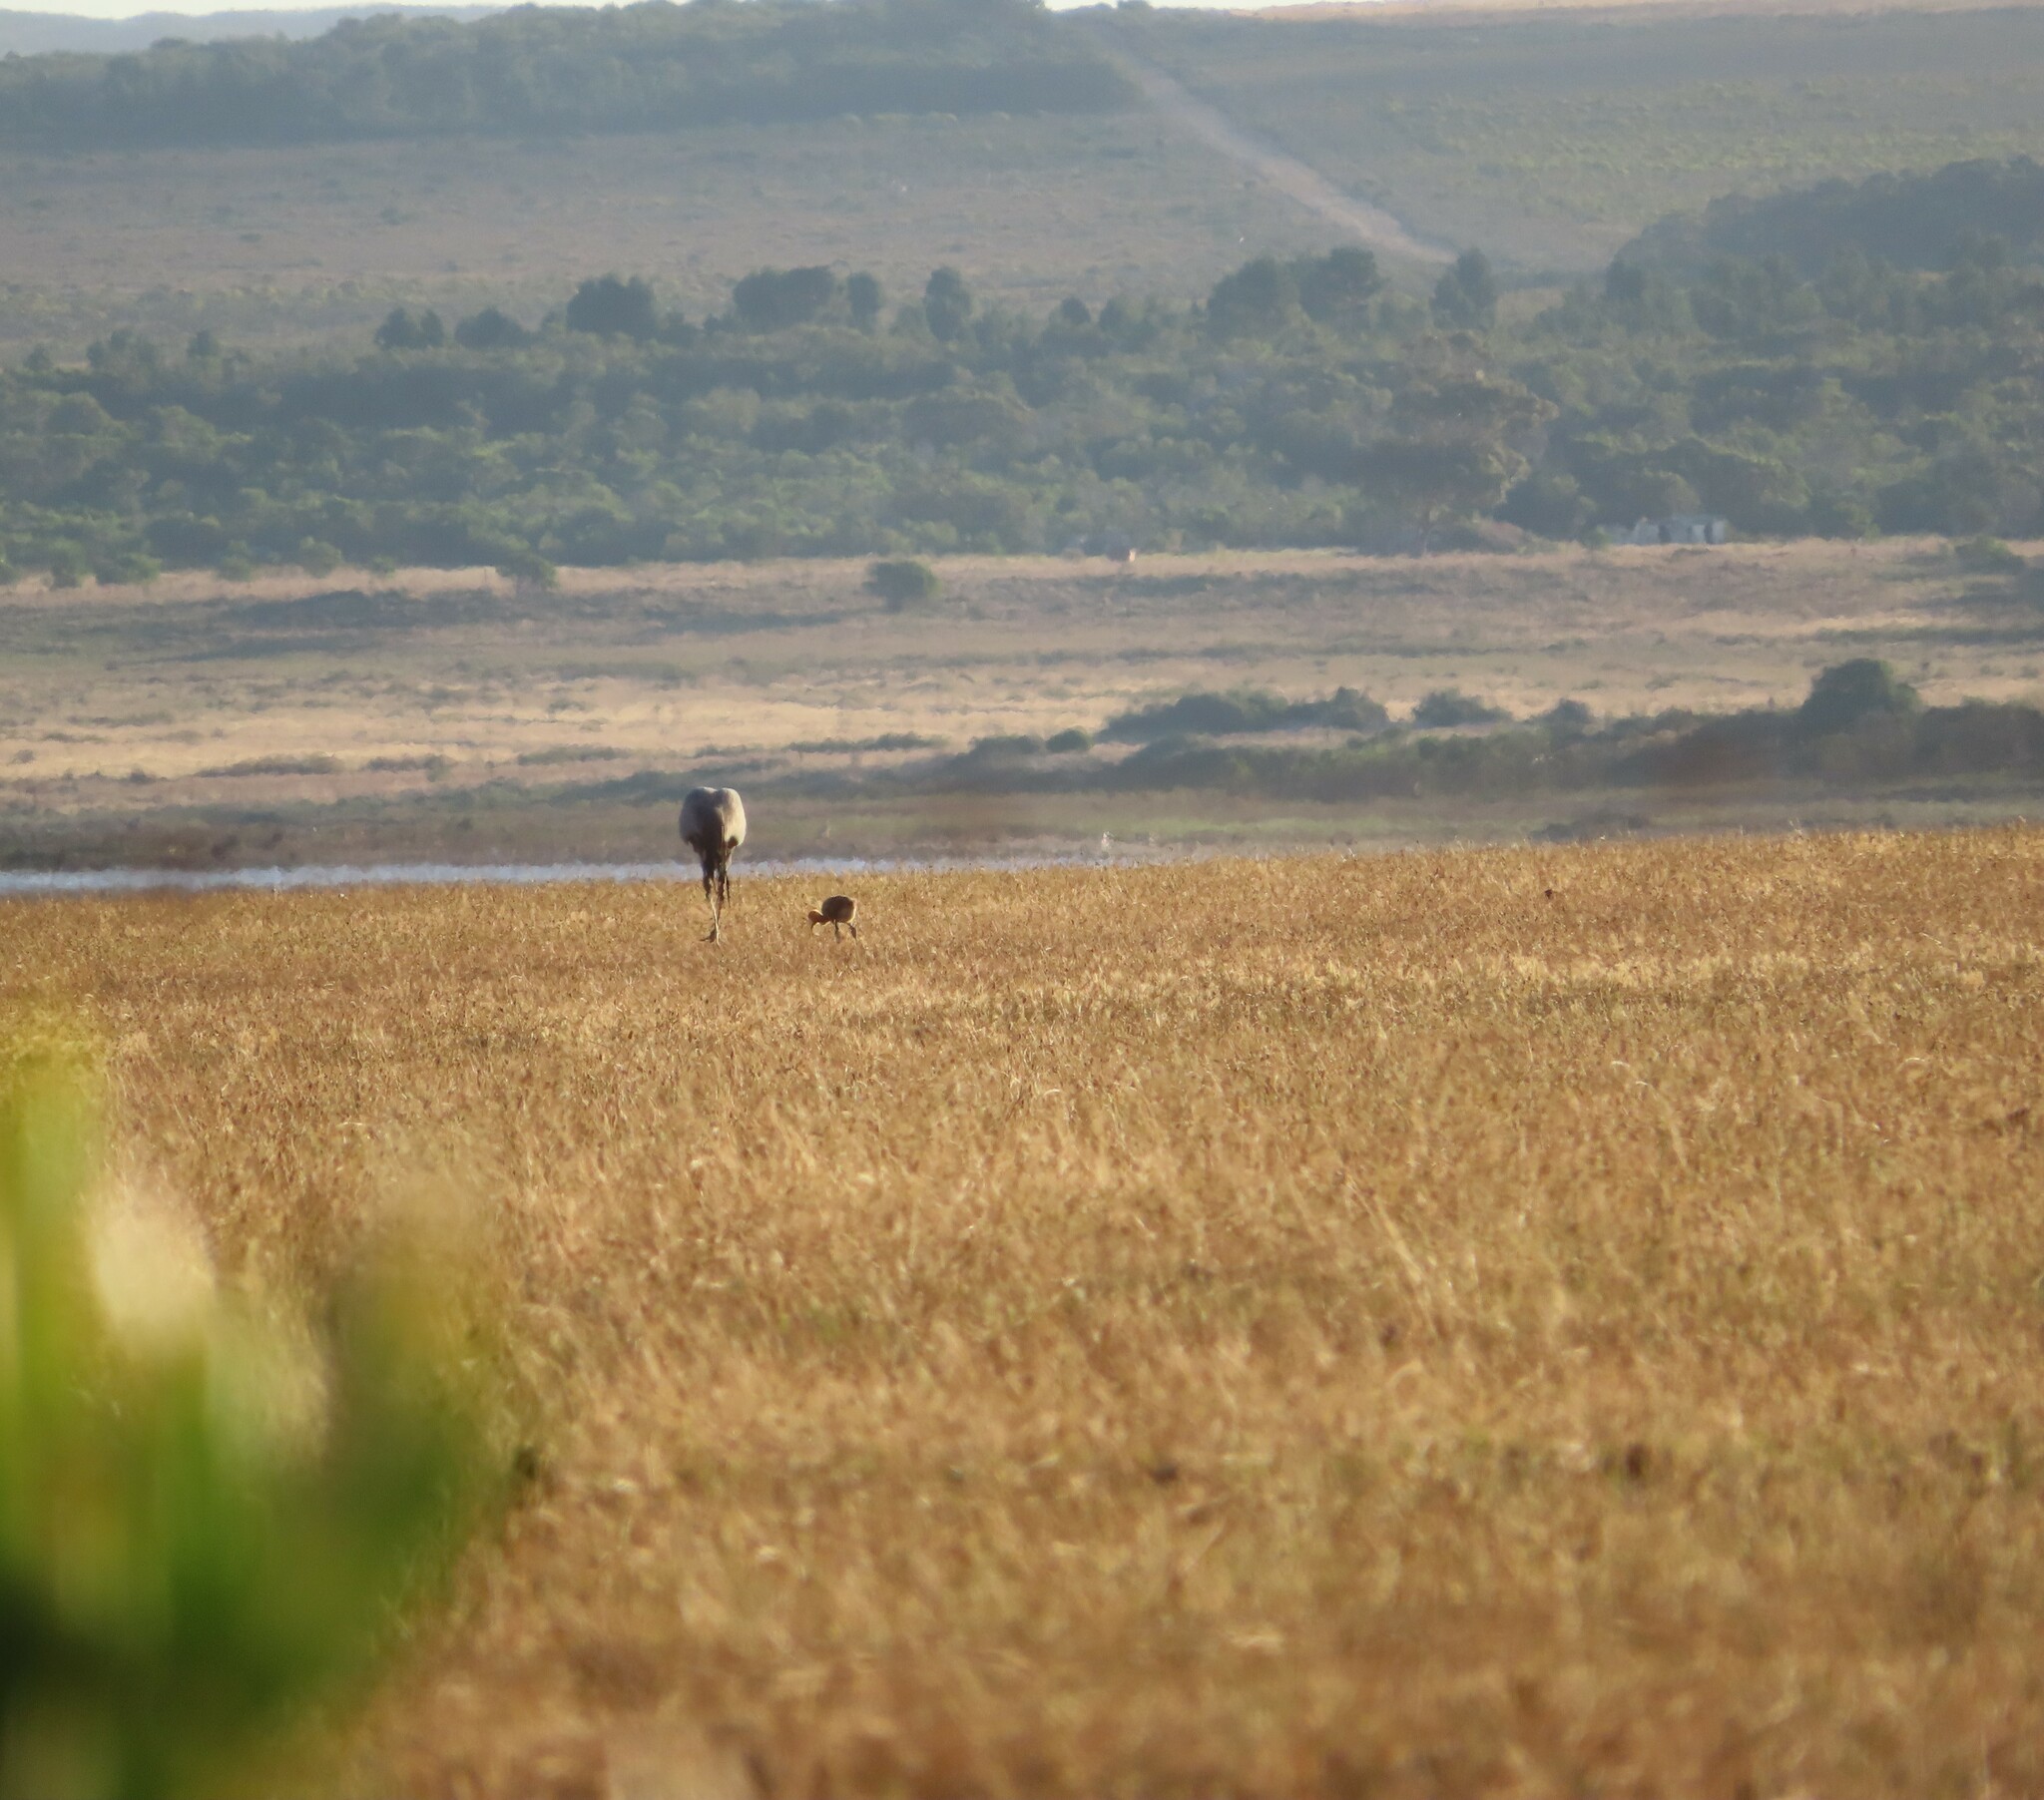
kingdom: Animalia
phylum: Chordata
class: Aves
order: Gruiformes
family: Gruidae
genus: Anthropoides
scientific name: Anthropoides paradiseus
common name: Blue crane
